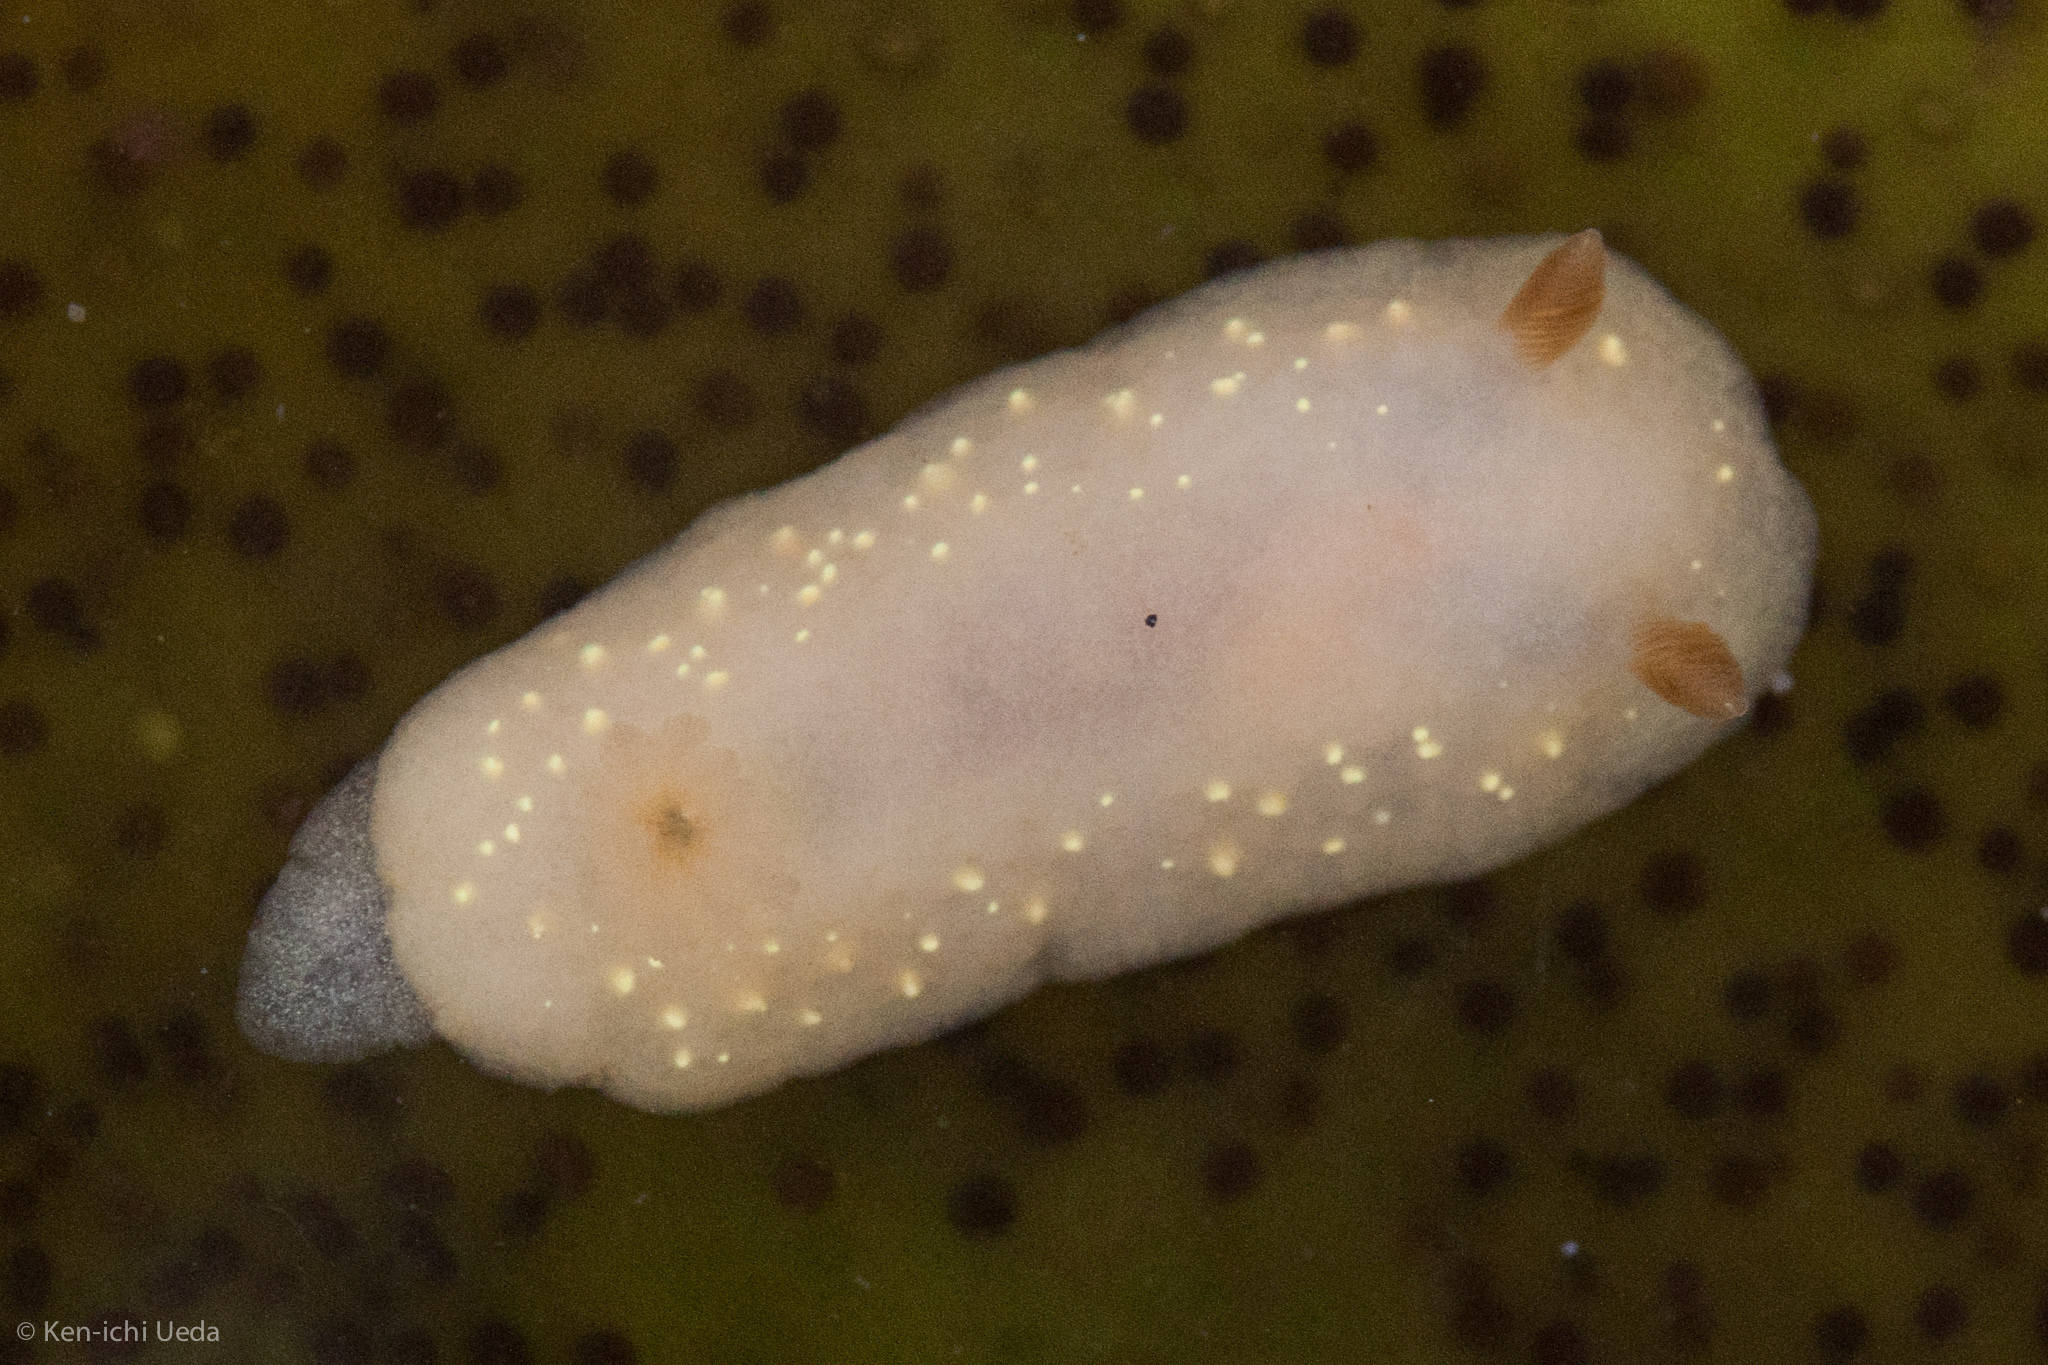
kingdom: Animalia
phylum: Mollusca
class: Gastropoda
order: Nudibranchia
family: Cadlinidae
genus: Cadlina
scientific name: Cadlina modesta
